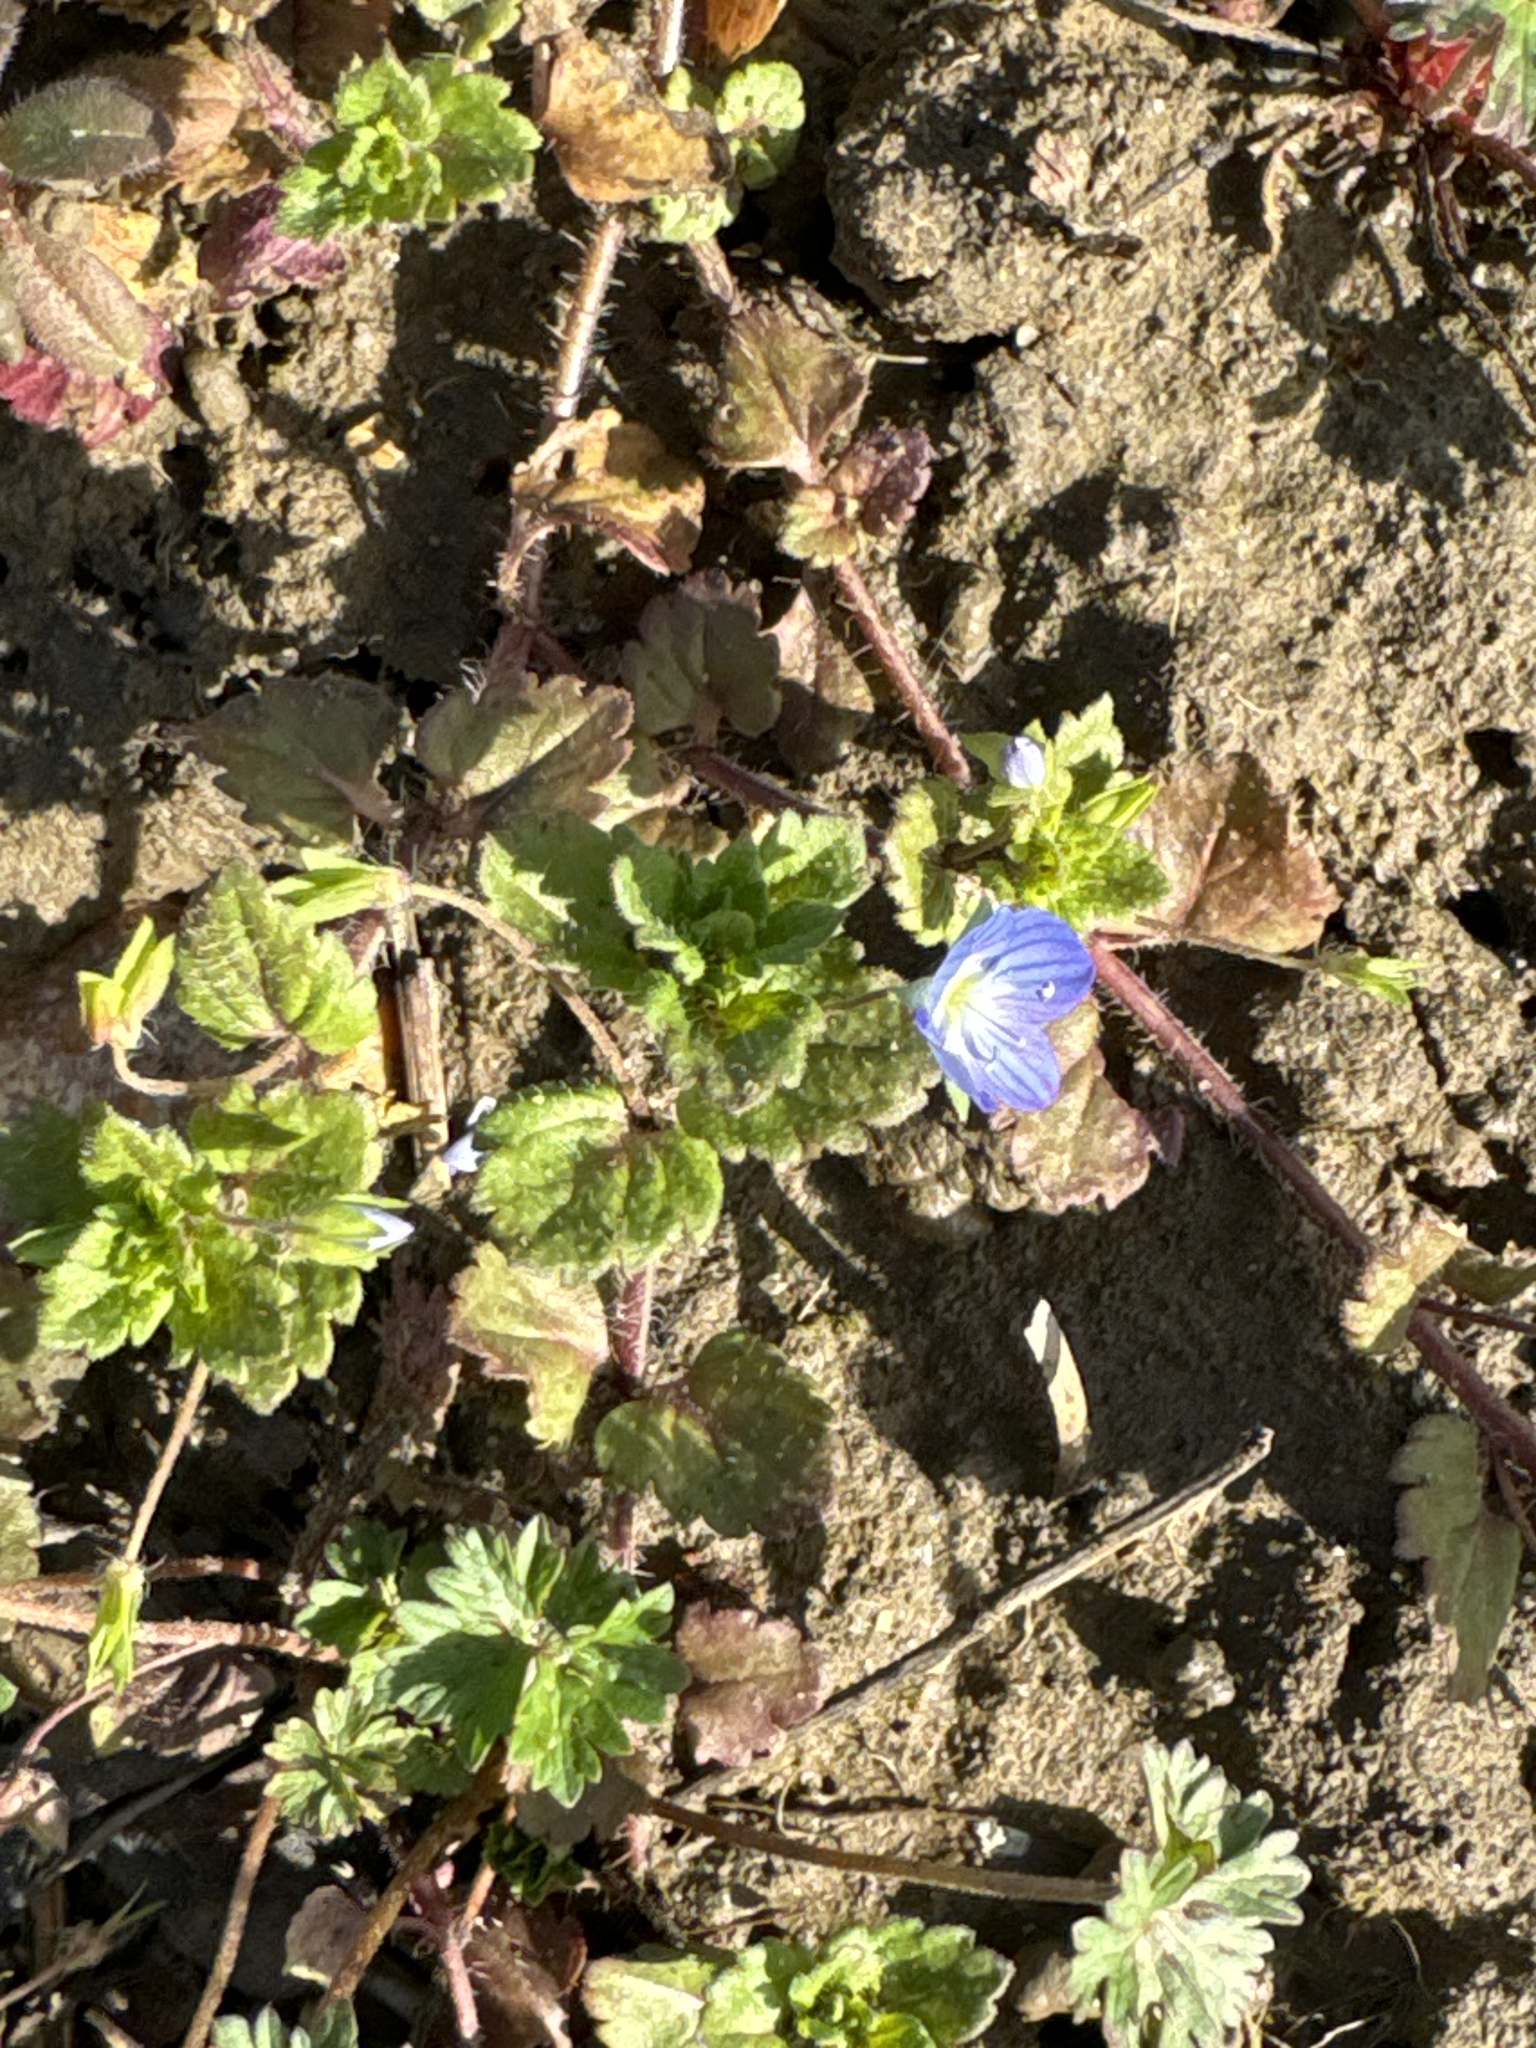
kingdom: Plantae
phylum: Tracheophyta
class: Magnoliopsida
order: Lamiales
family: Plantaginaceae
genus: Veronica
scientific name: Veronica persica
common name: Common field-speedwell
